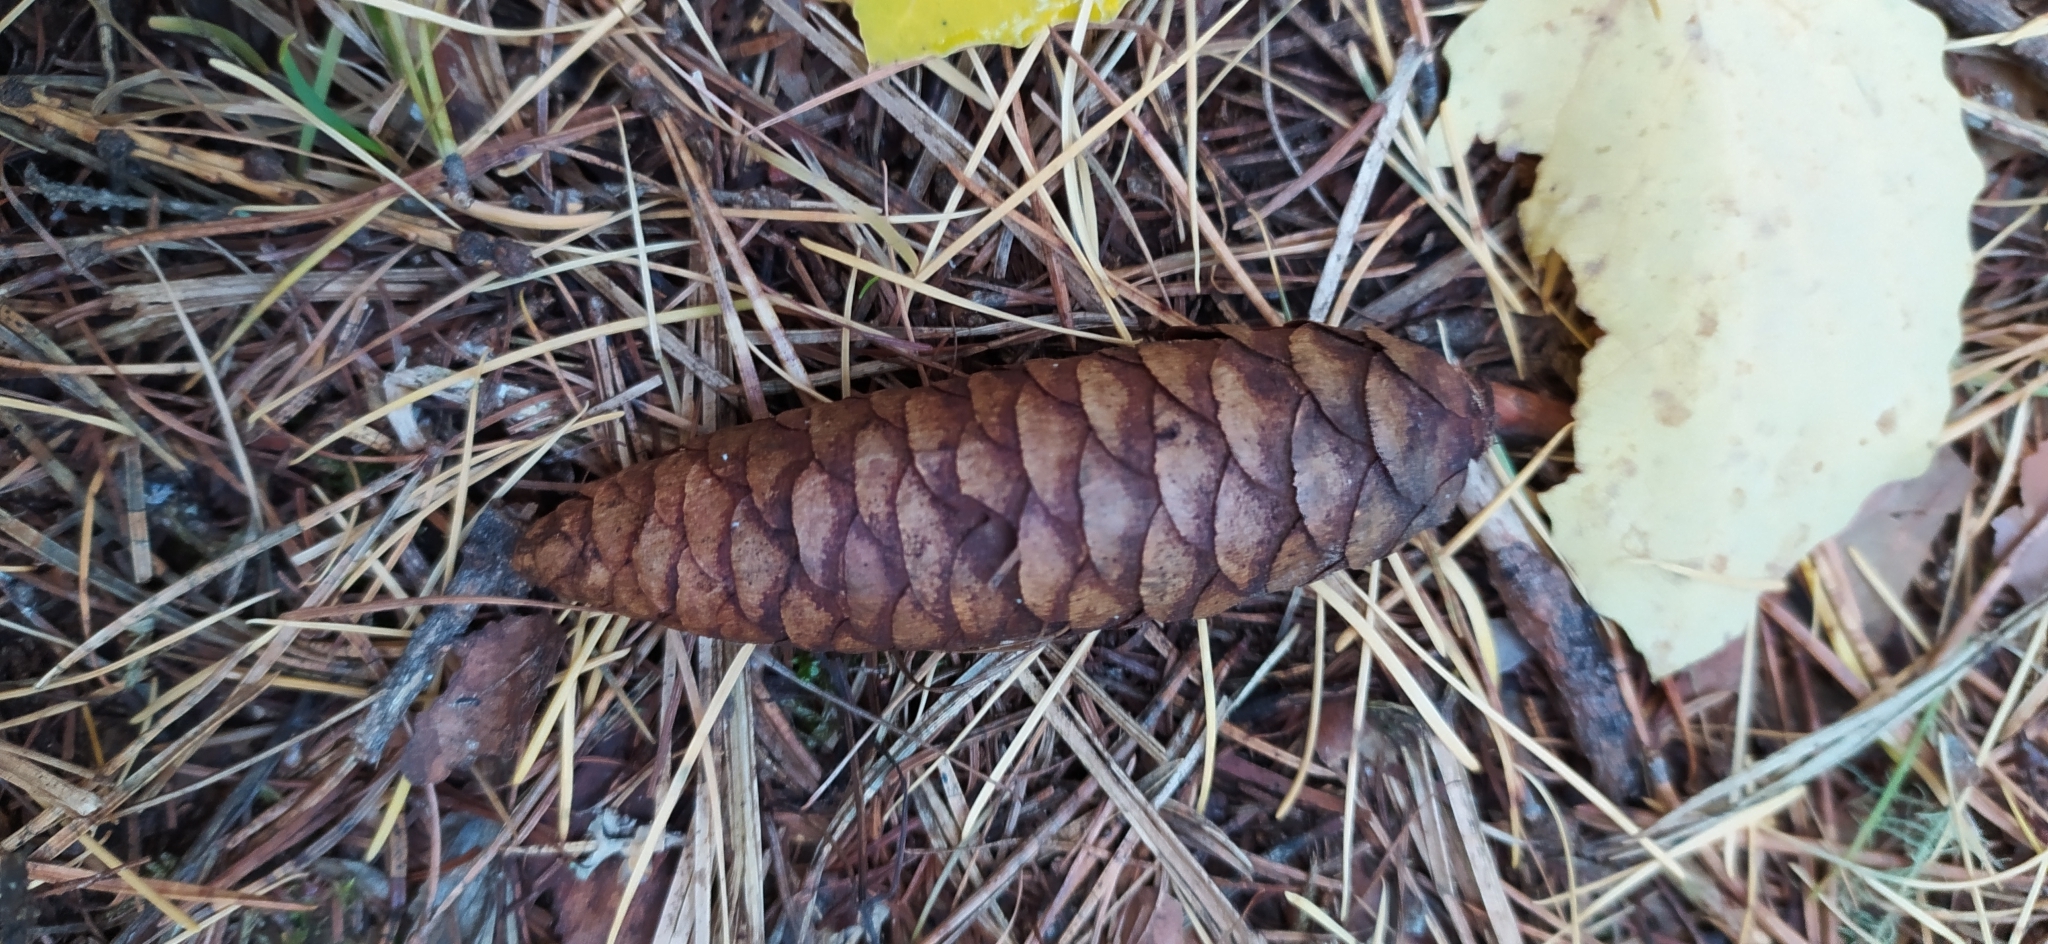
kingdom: Plantae
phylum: Tracheophyta
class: Pinopsida
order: Pinales
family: Pinaceae
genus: Picea
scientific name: Picea obovata
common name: Siberian spruce
